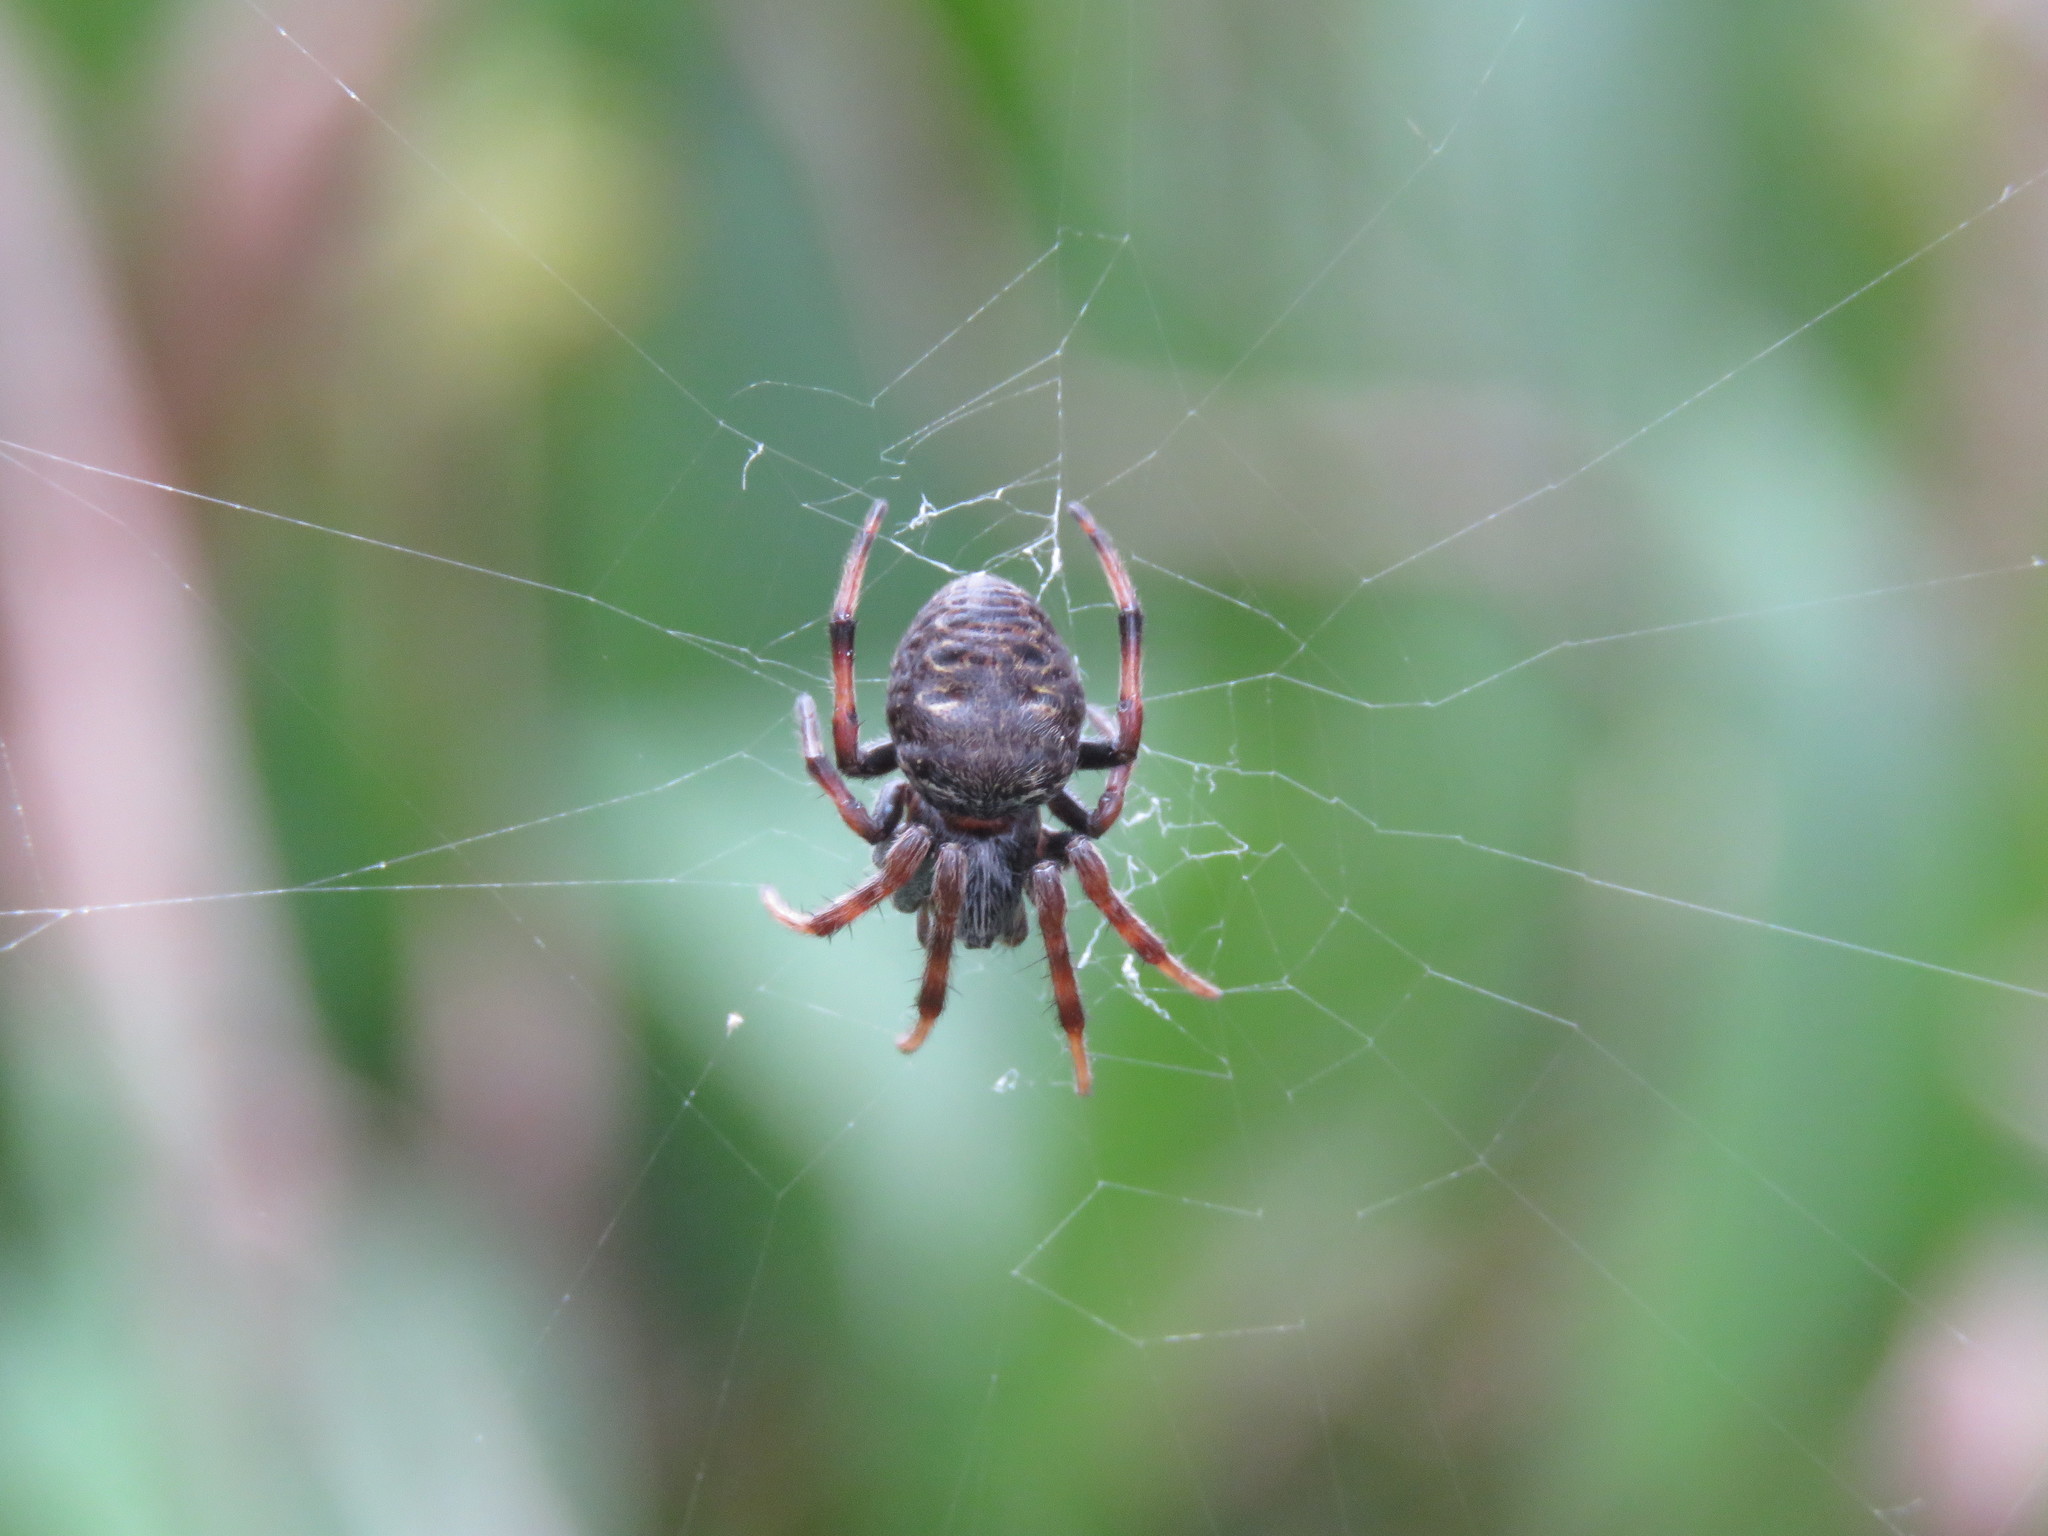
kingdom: Animalia
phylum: Arthropoda
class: Arachnida
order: Araneae
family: Araneidae
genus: Araneus
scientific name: Araneus granadensis
